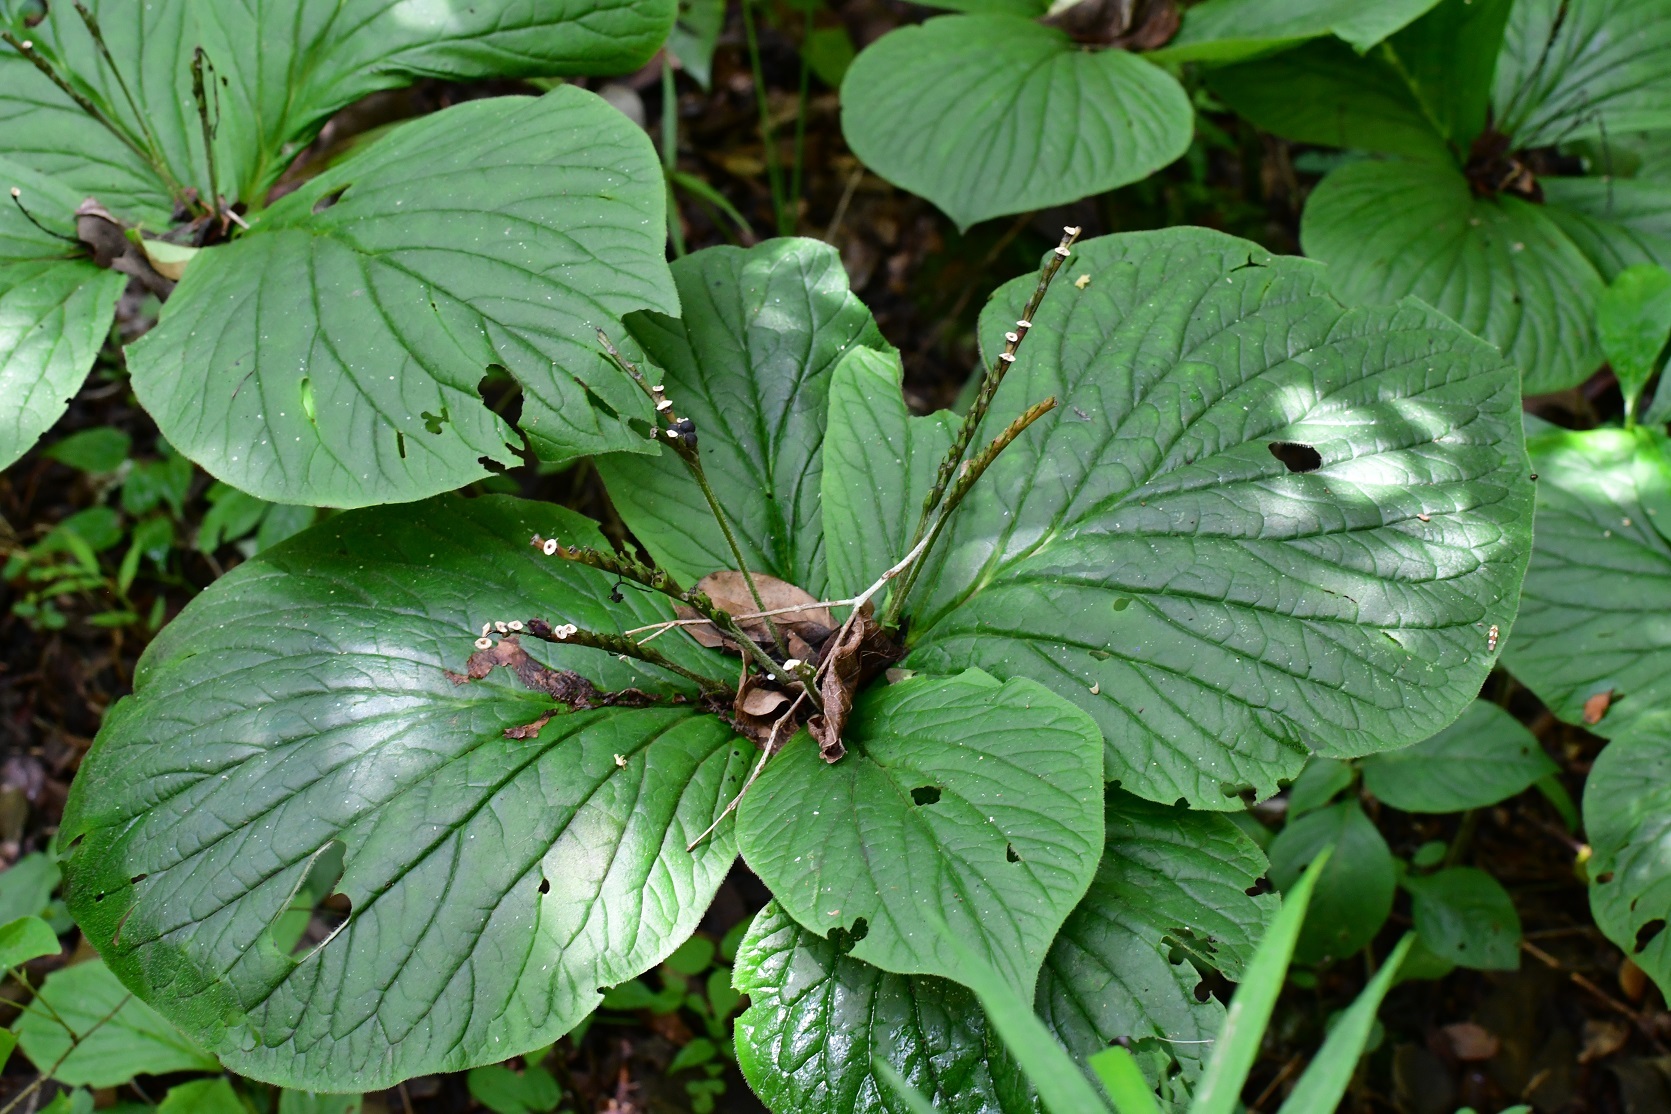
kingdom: Plantae
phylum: Tracheophyta
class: Magnoliopsida
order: Gentianales
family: Loganiaceae
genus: Spigelia
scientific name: Spigelia splendens
